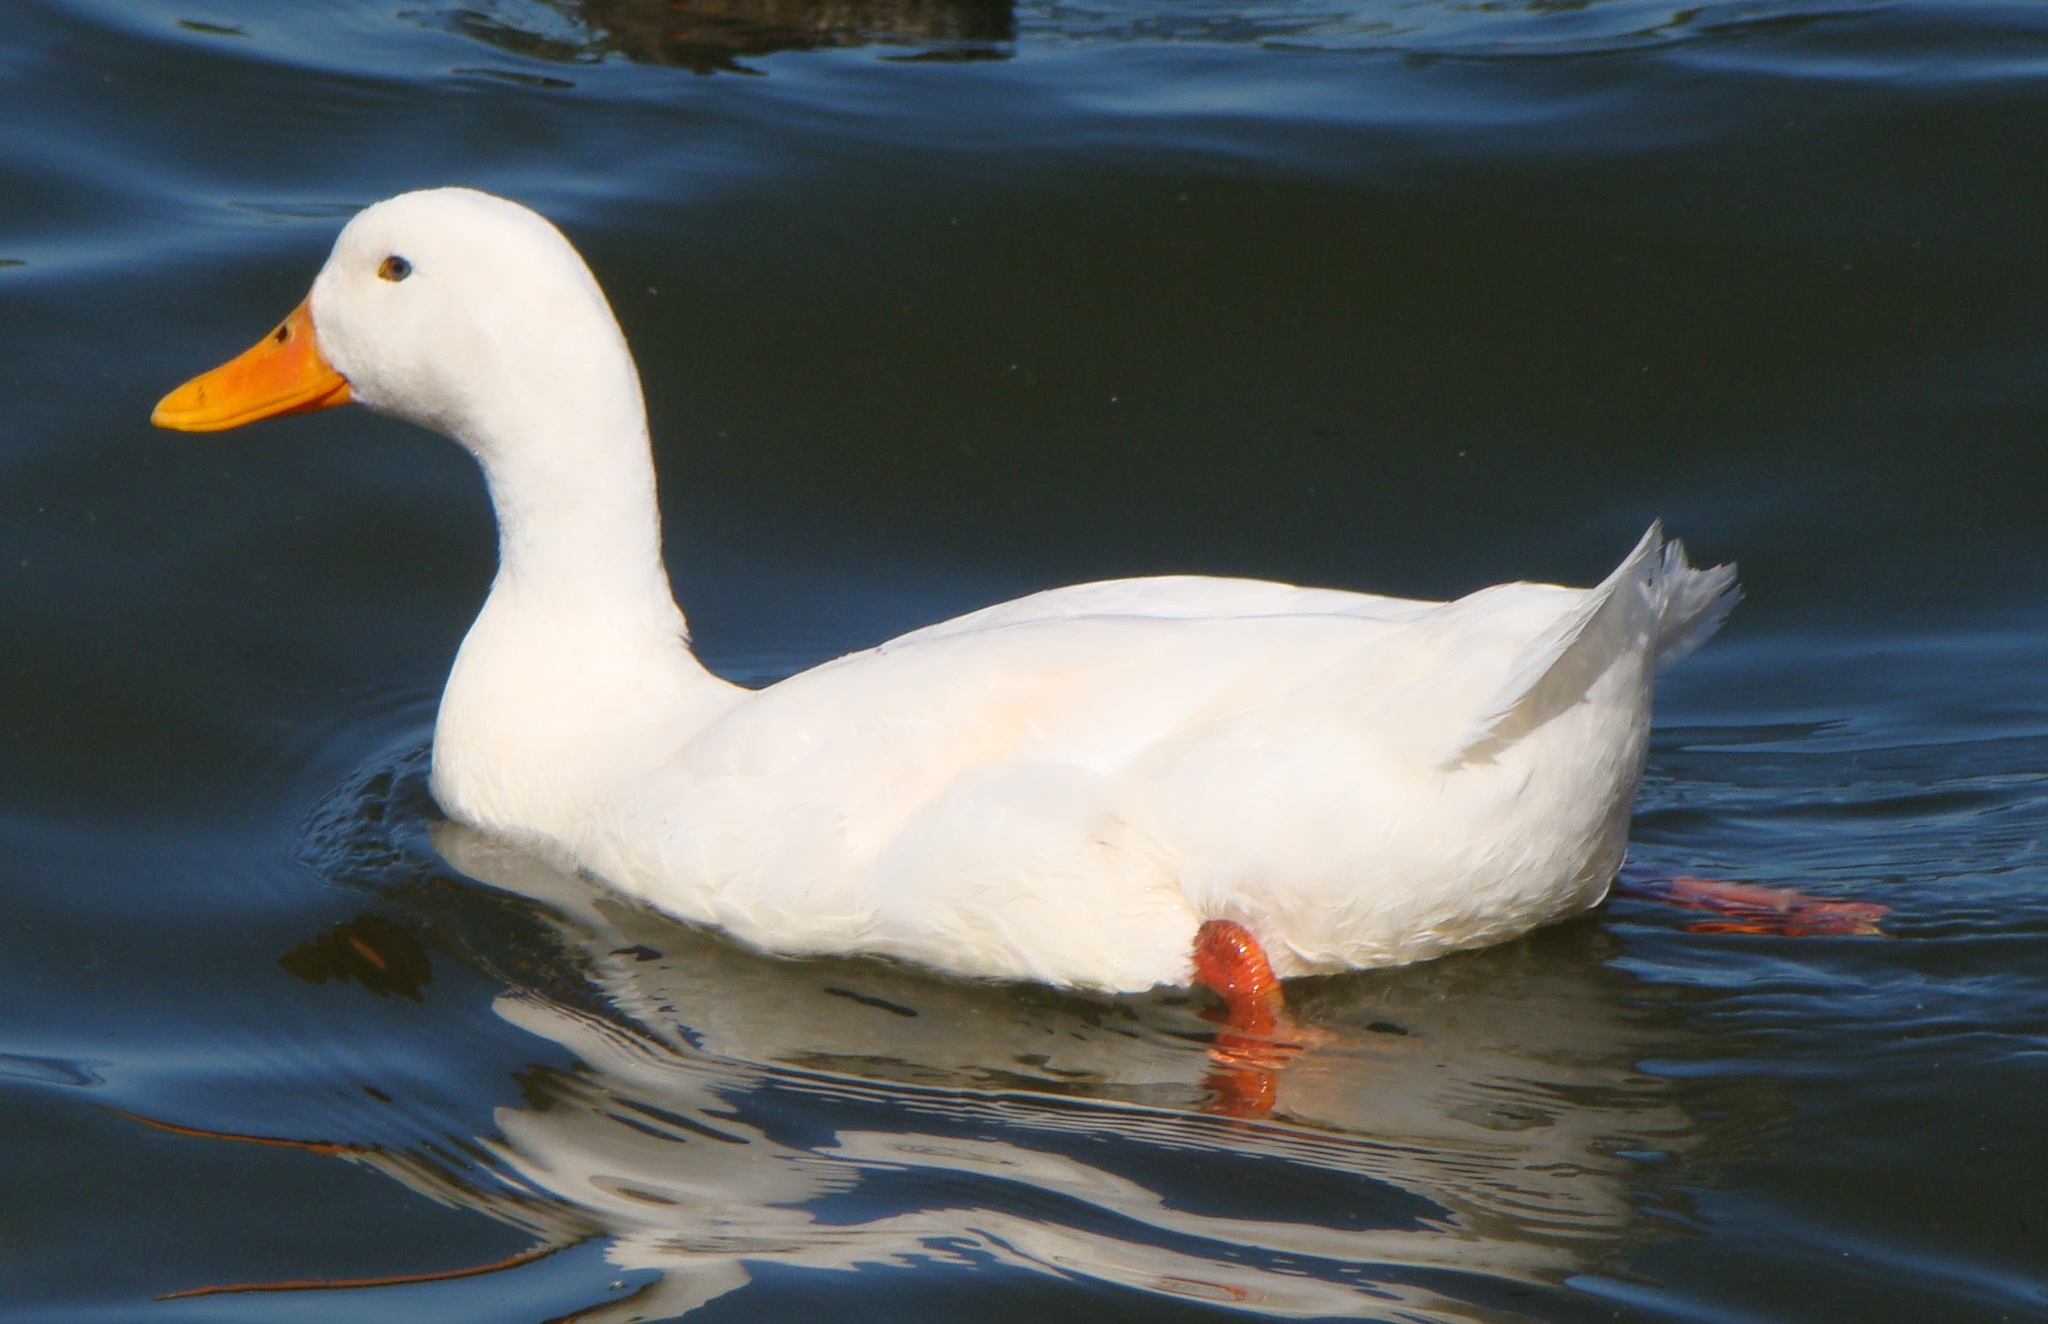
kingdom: Animalia
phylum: Chordata
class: Aves
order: Anseriformes
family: Anatidae
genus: Anas
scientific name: Anas platyrhynchos
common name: Mallard
